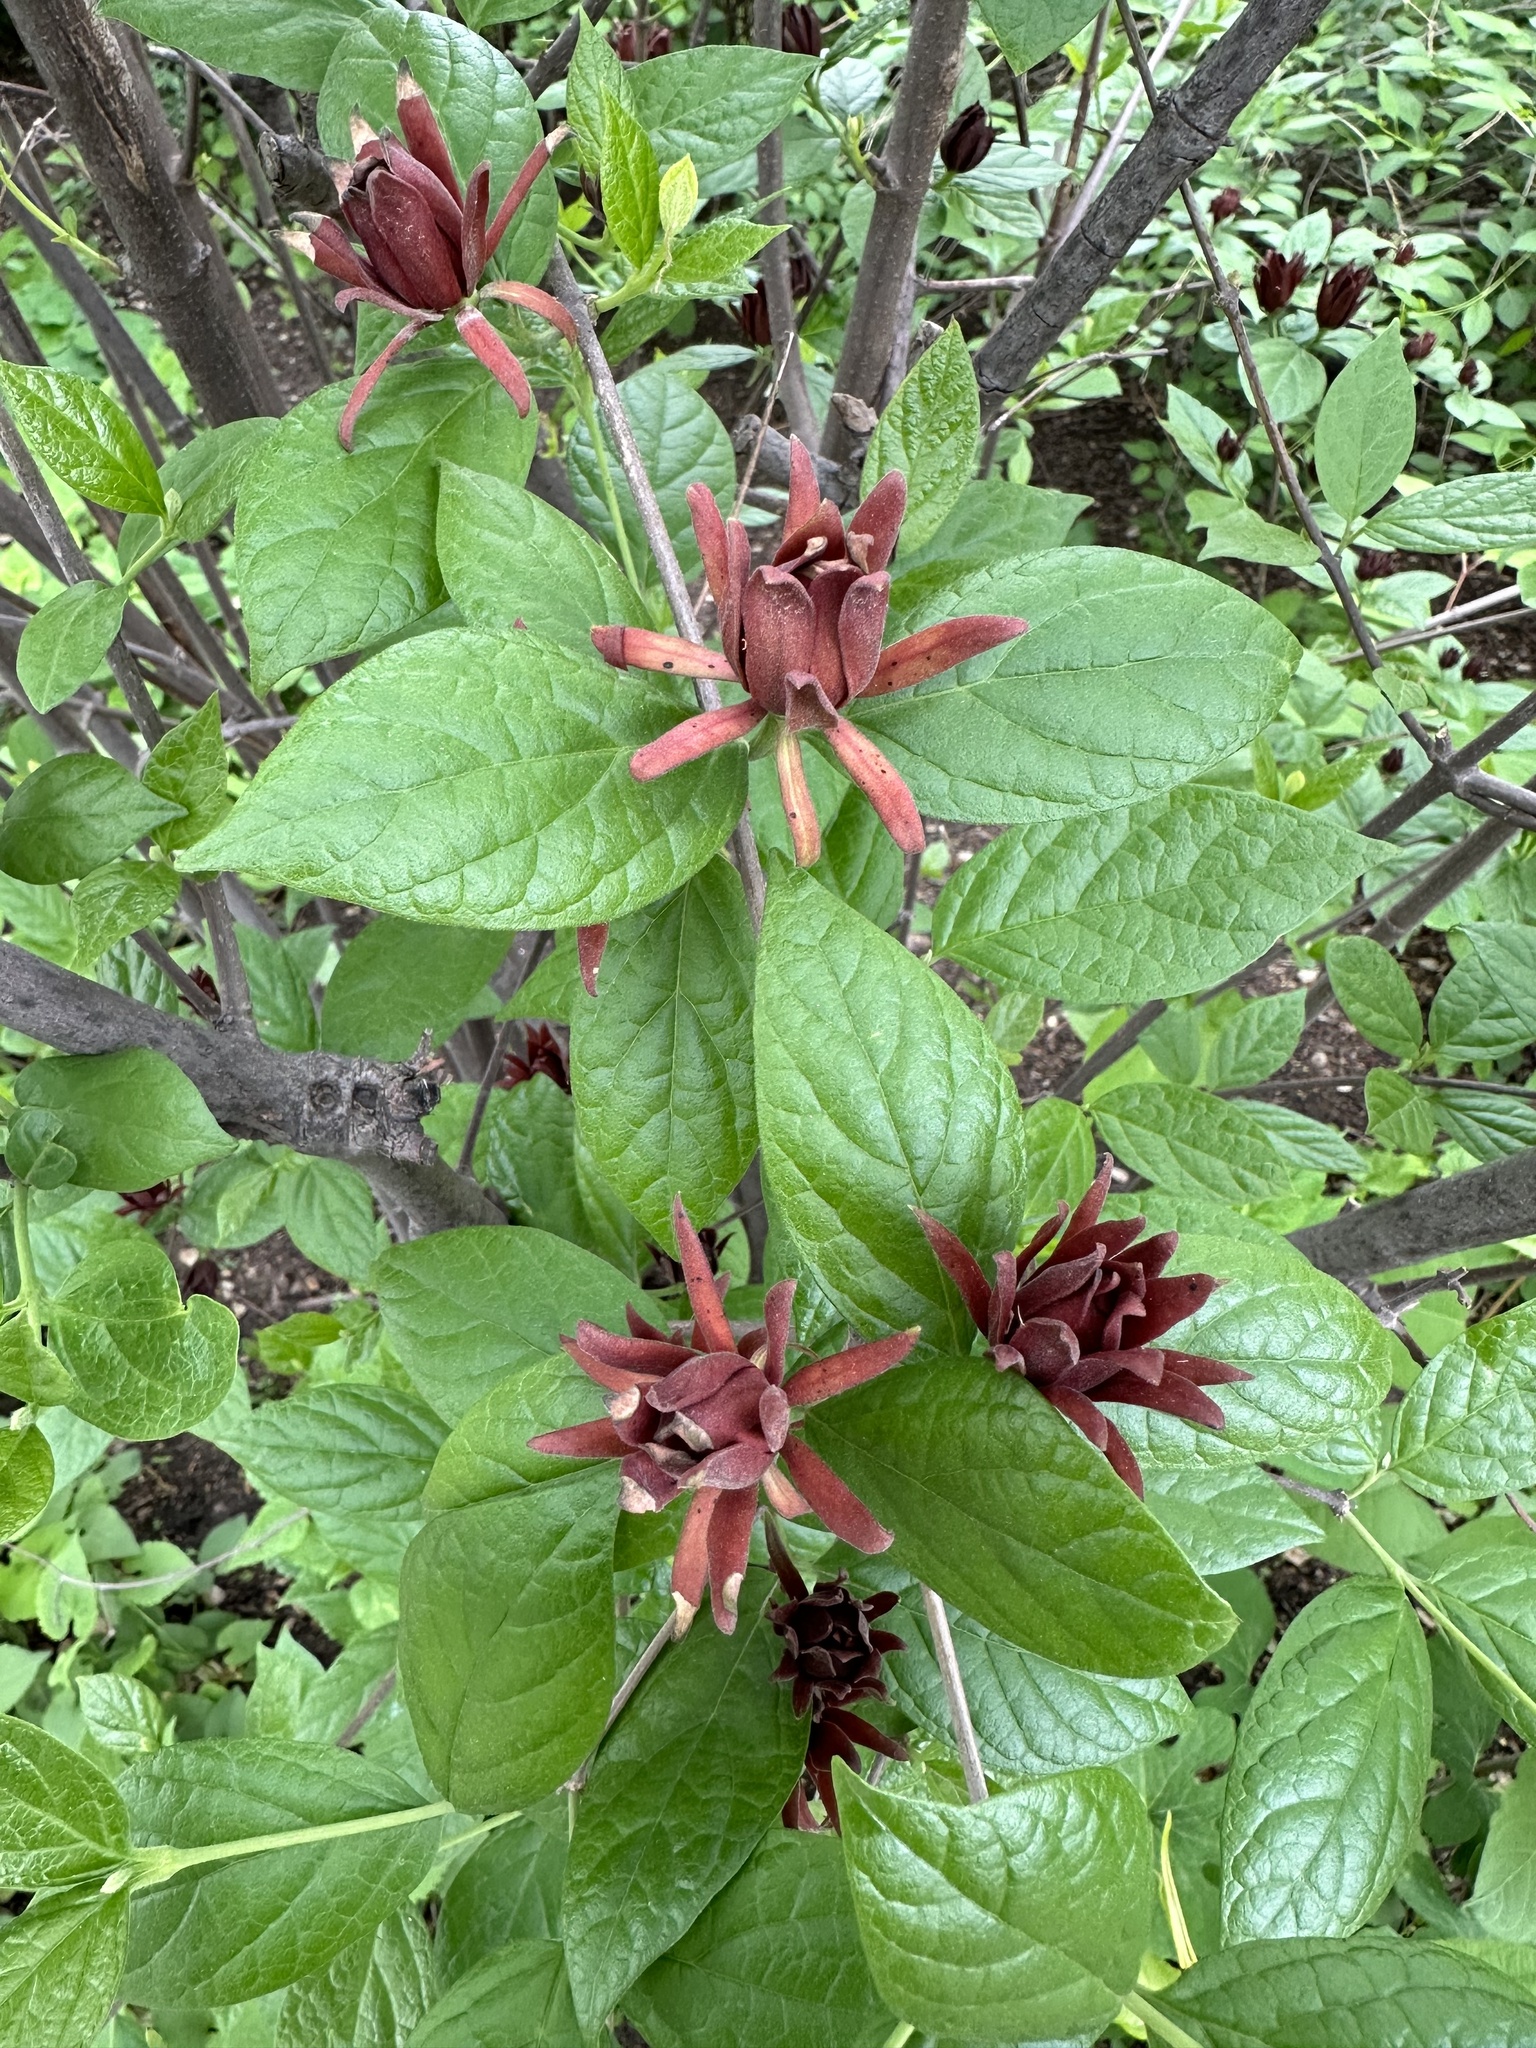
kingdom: Plantae
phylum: Tracheophyta
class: Magnoliopsida
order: Laurales
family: Calycanthaceae
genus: Calycanthus
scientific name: Calycanthus floridus
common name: Carolina-allspice
